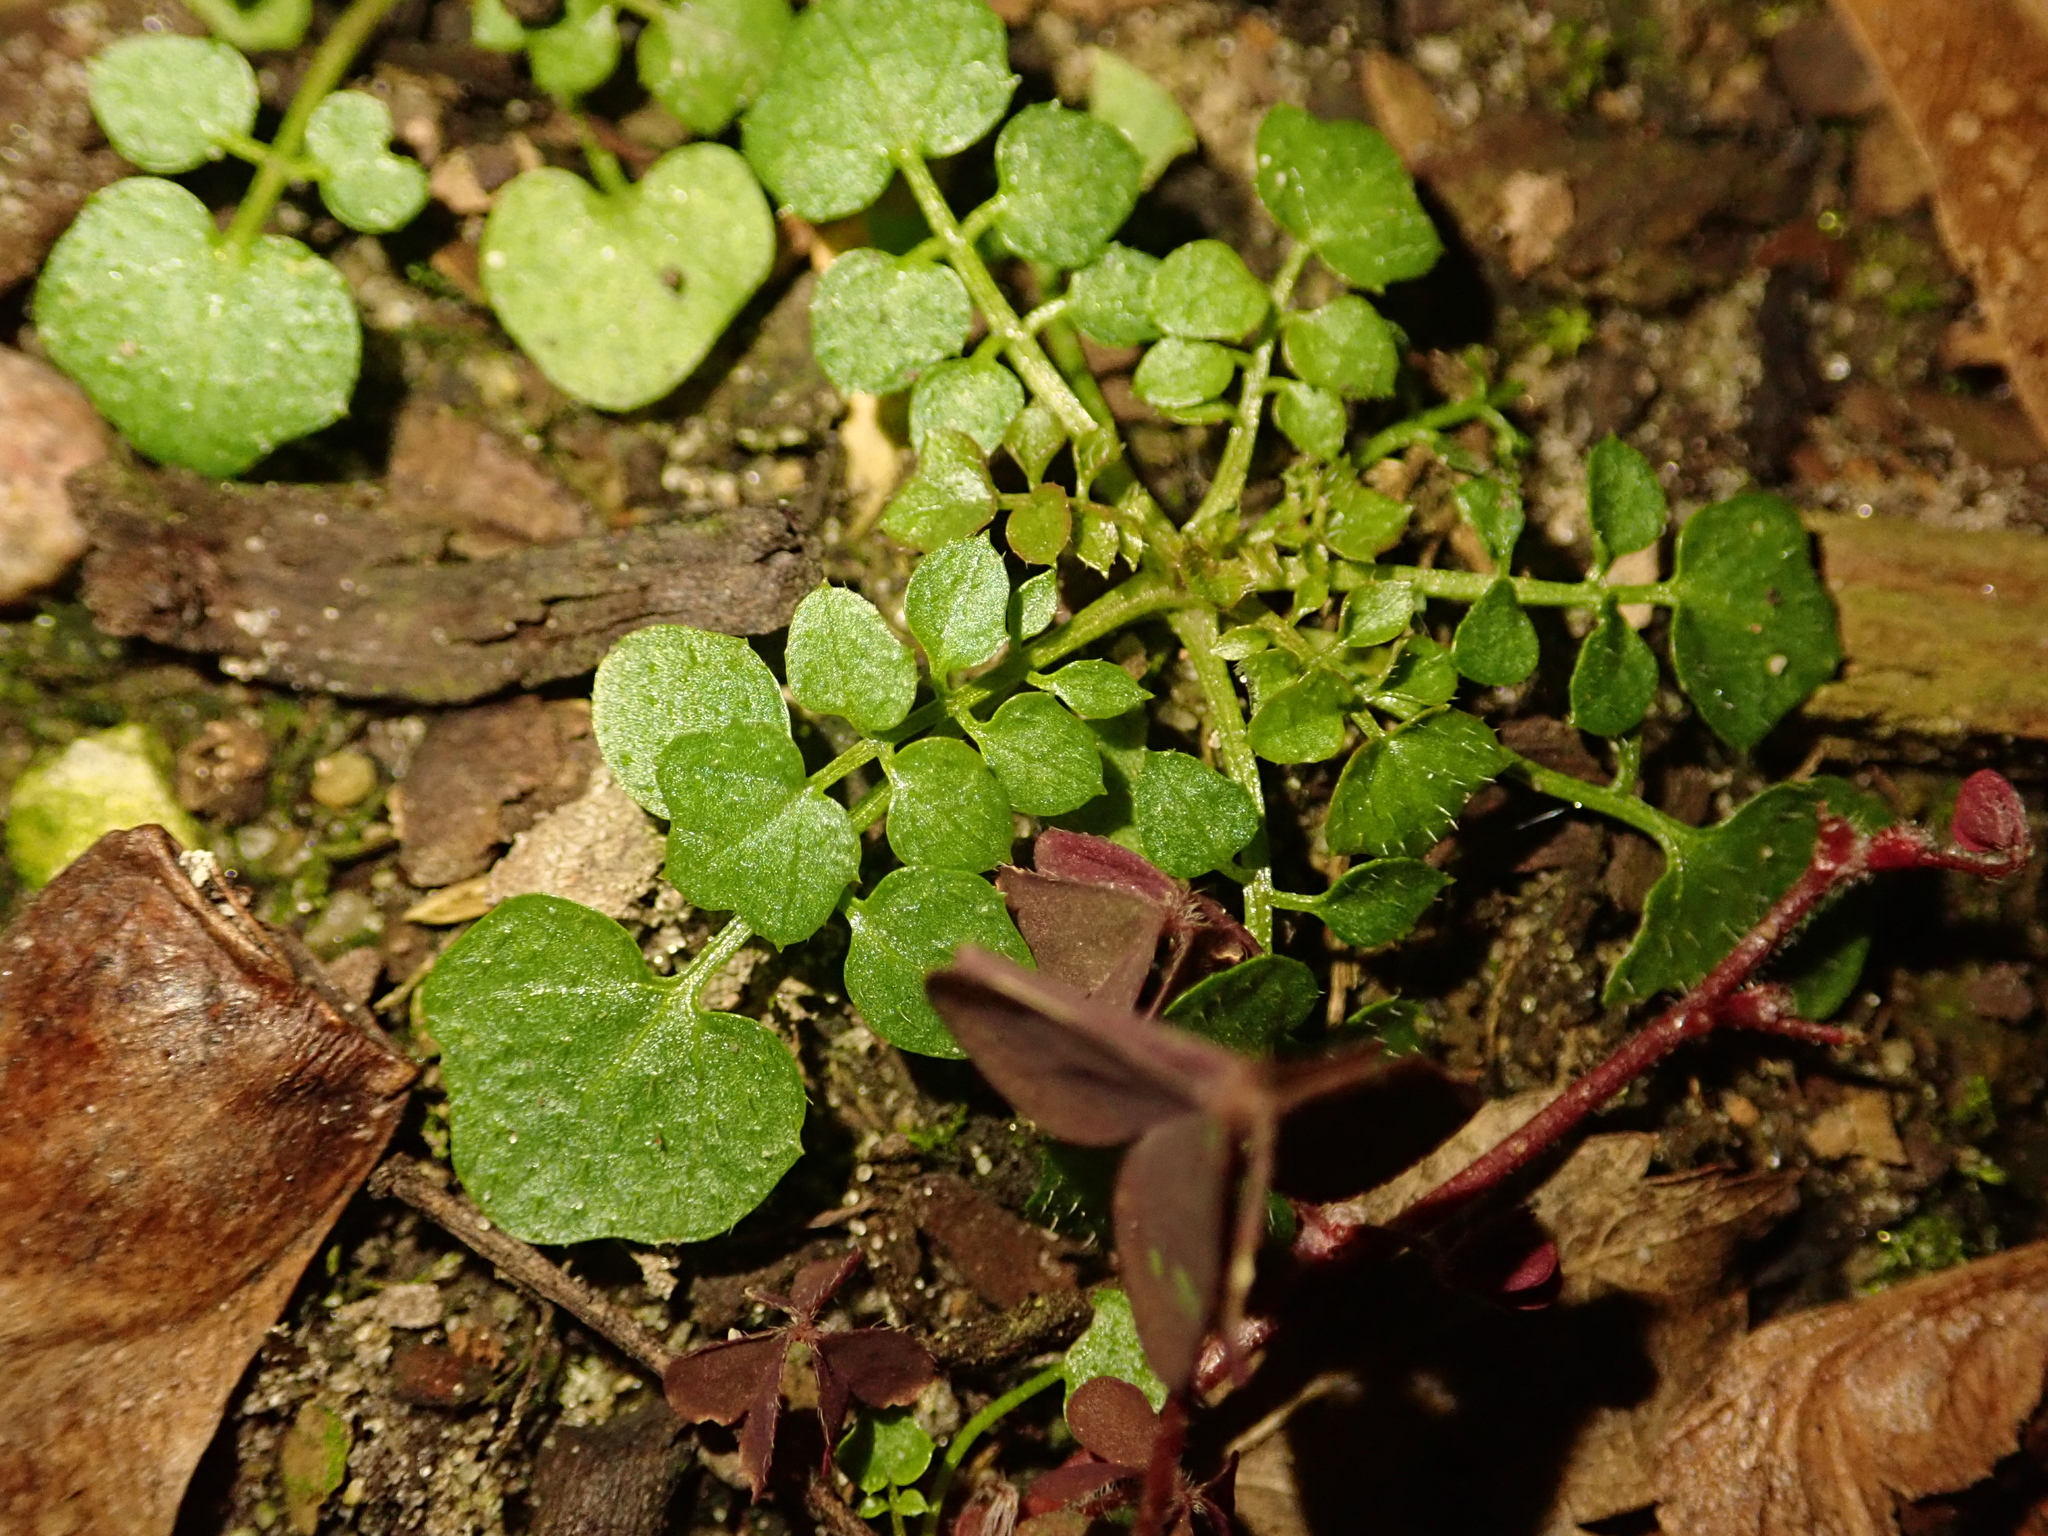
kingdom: Plantae
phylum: Tracheophyta
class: Magnoliopsida
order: Brassicales
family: Brassicaceae
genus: Cardamine
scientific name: Cardamine hirsuta
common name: Hairy bittercress
